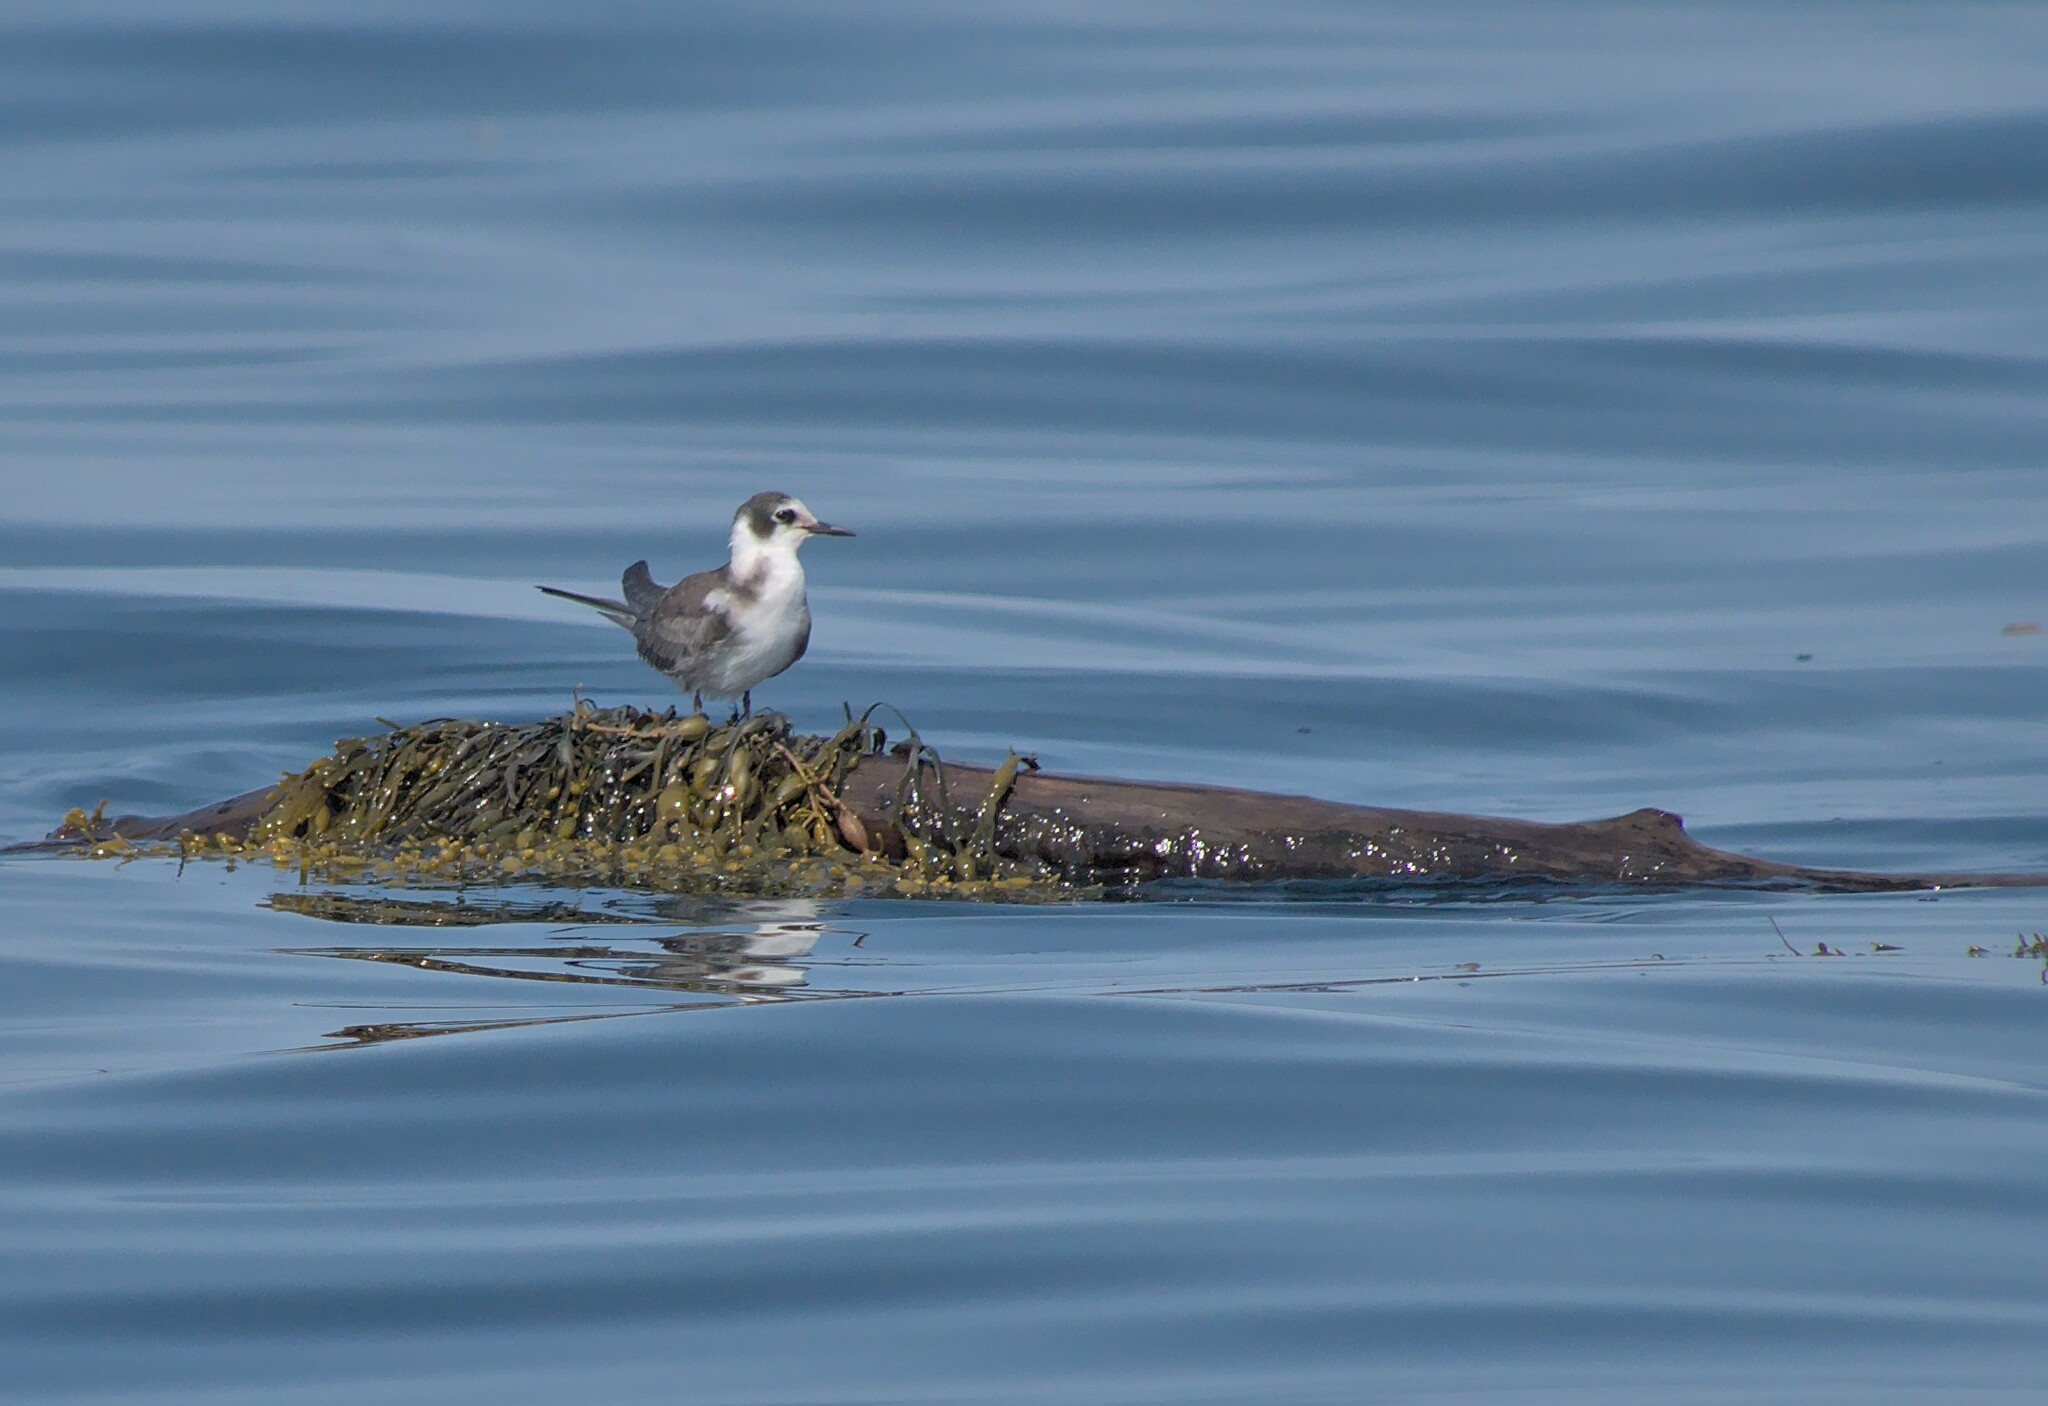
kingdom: Animalia
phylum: Chordata
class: Aves
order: Charadriiformes
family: Laridae
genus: Chlidonias
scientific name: Chlidonias niger
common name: Black tern
